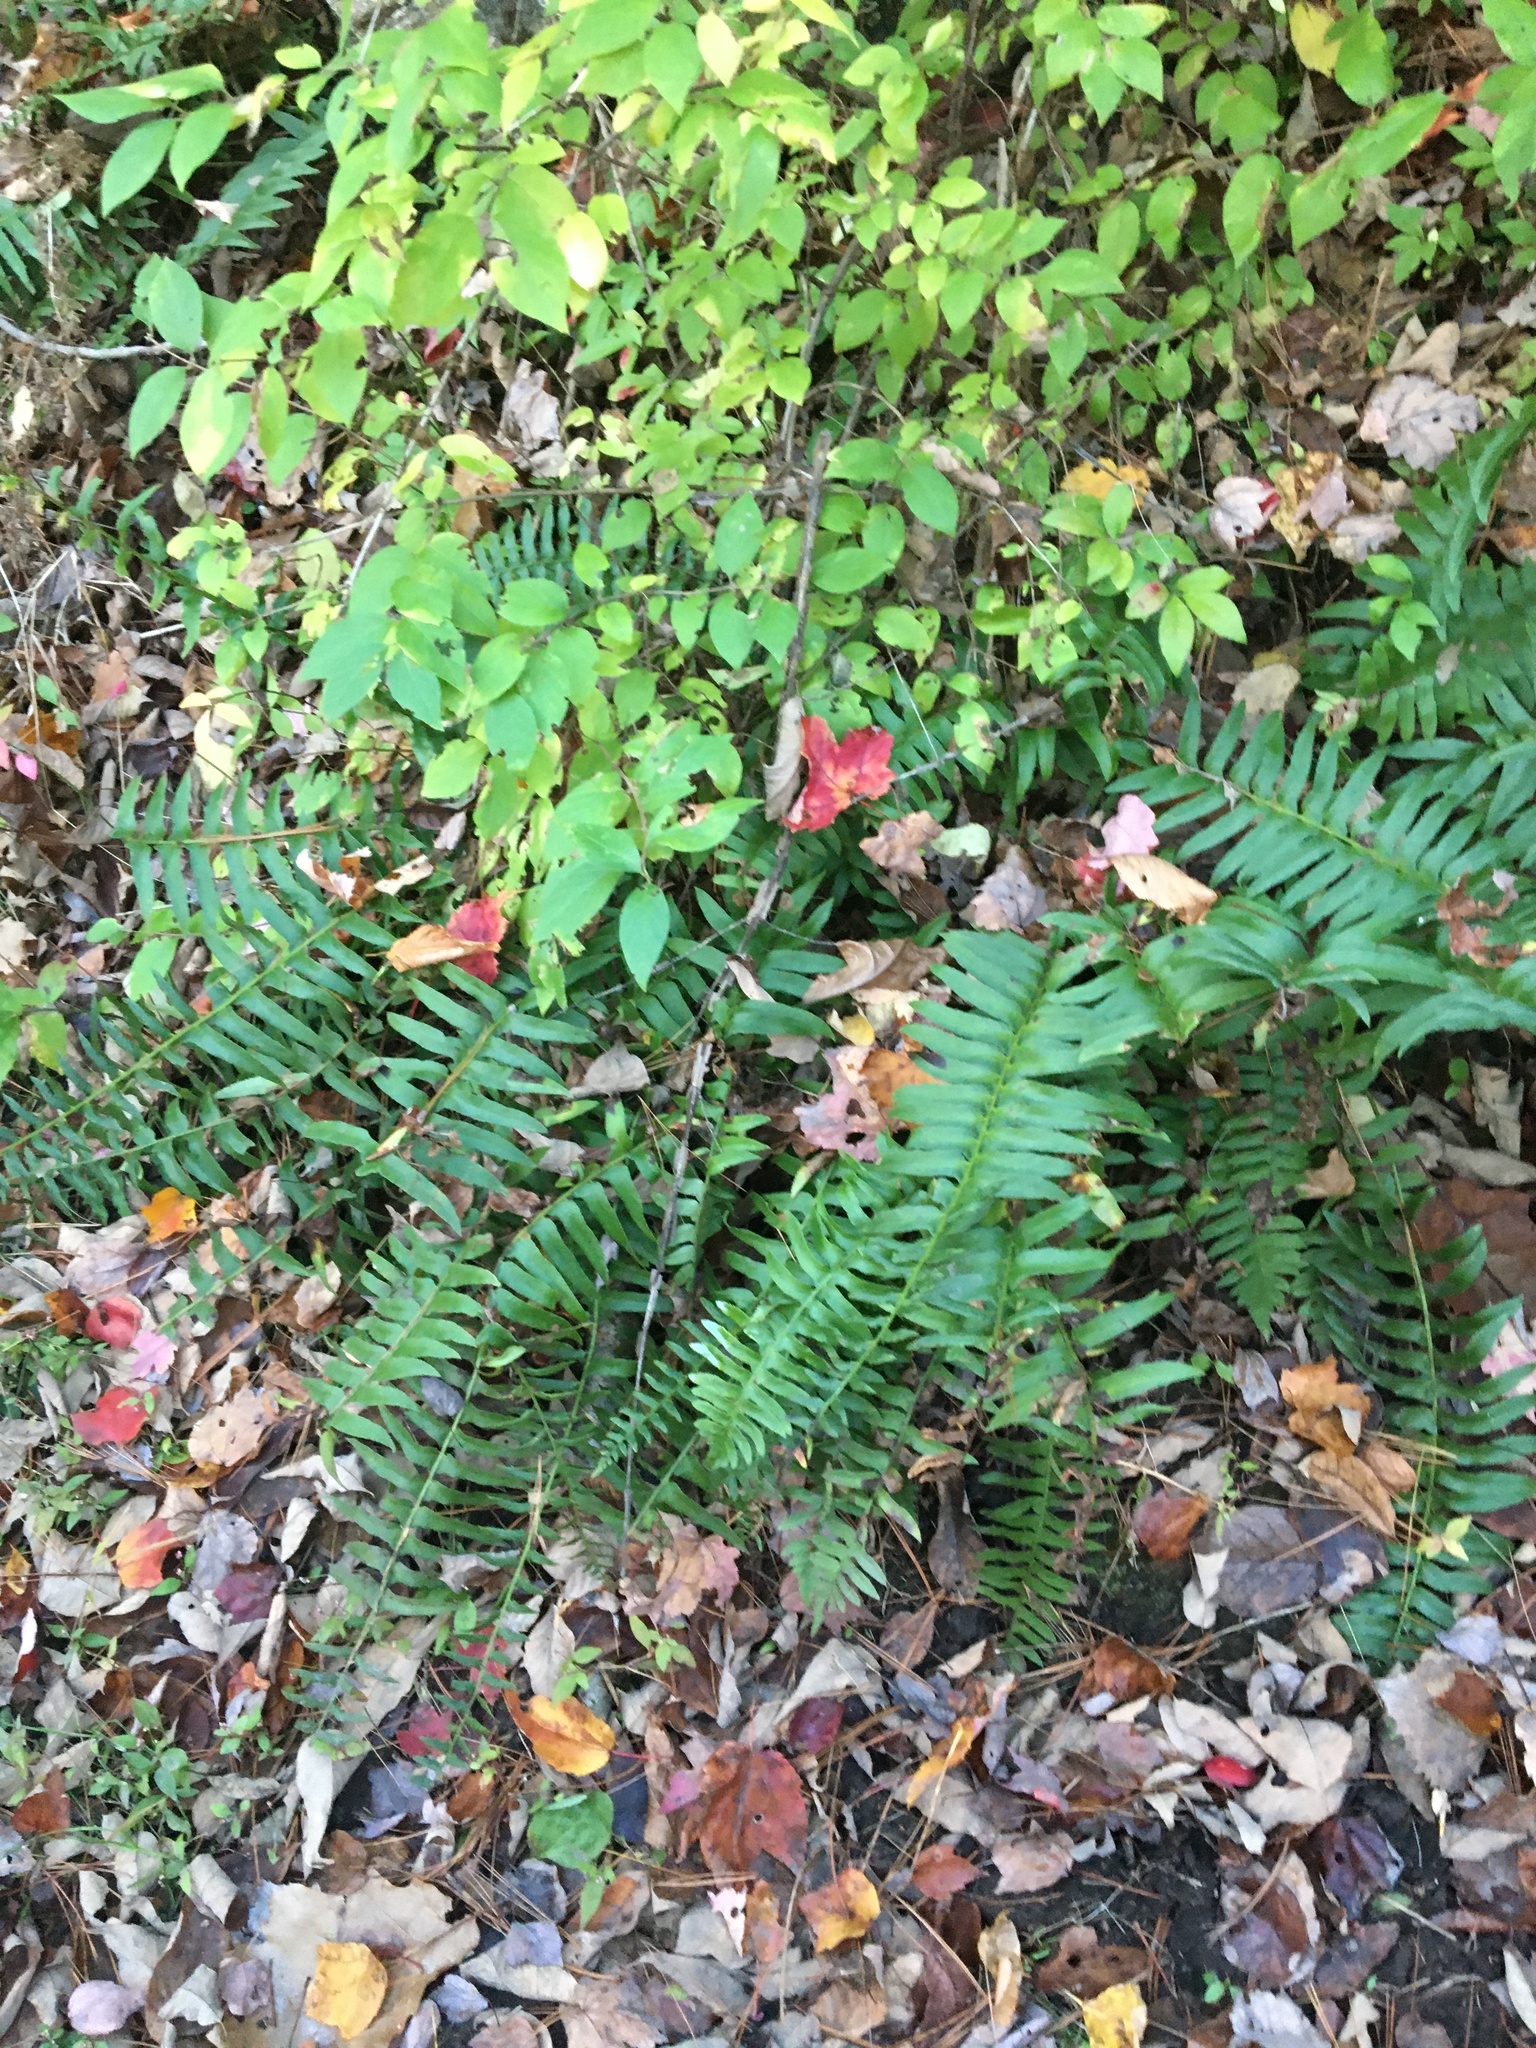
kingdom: Plantae
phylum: Tracheophyta
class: Polypodiopsida
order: Polypodiales
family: Dryopteridaceae
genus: Polystichum
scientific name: Polystichum acrostichoides
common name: Christmas fern
